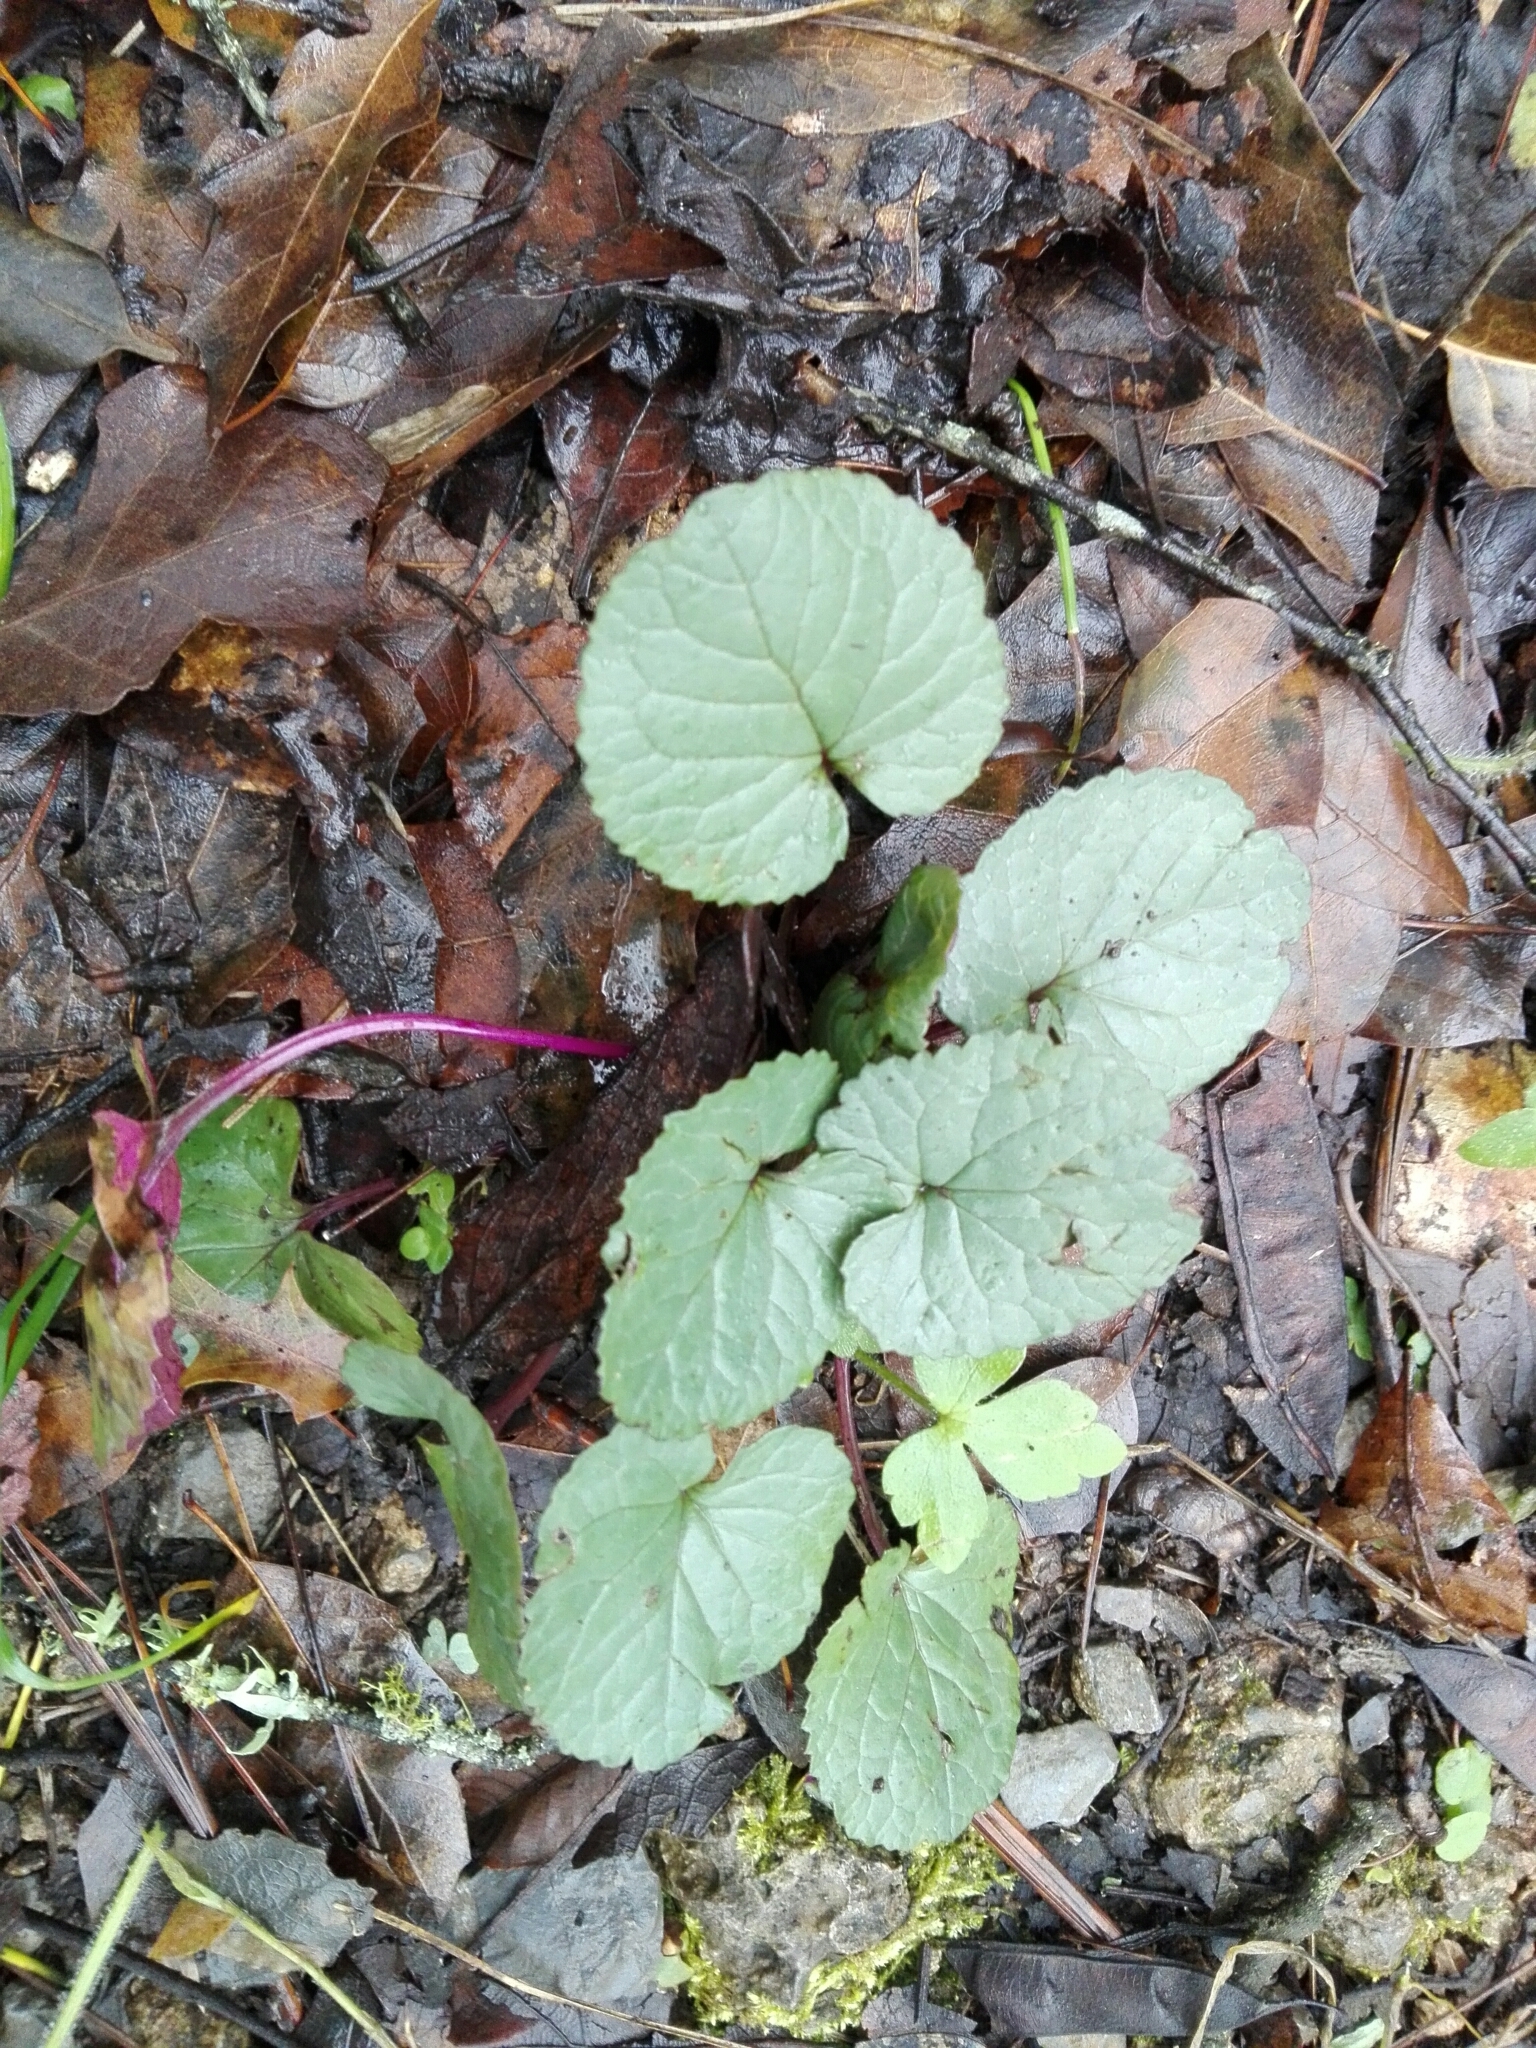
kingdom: Plantae
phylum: Tracheophyta
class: Magnoliopsida
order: Asterales
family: Asteraceae
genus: Packera
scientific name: Packera coahuilensis
